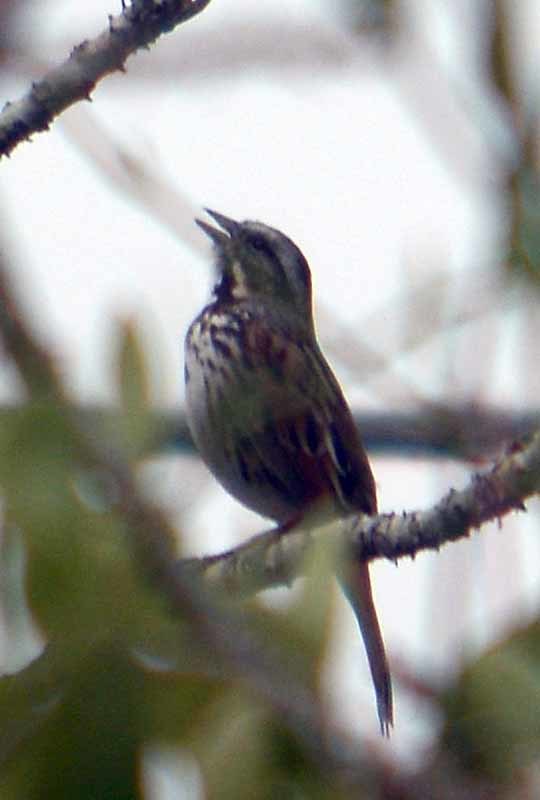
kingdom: Animalia
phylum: Chordata
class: Aves
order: Passeriformes
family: Passerellidae
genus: Melospiza
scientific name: Melospiza melodia
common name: Song sparrow
